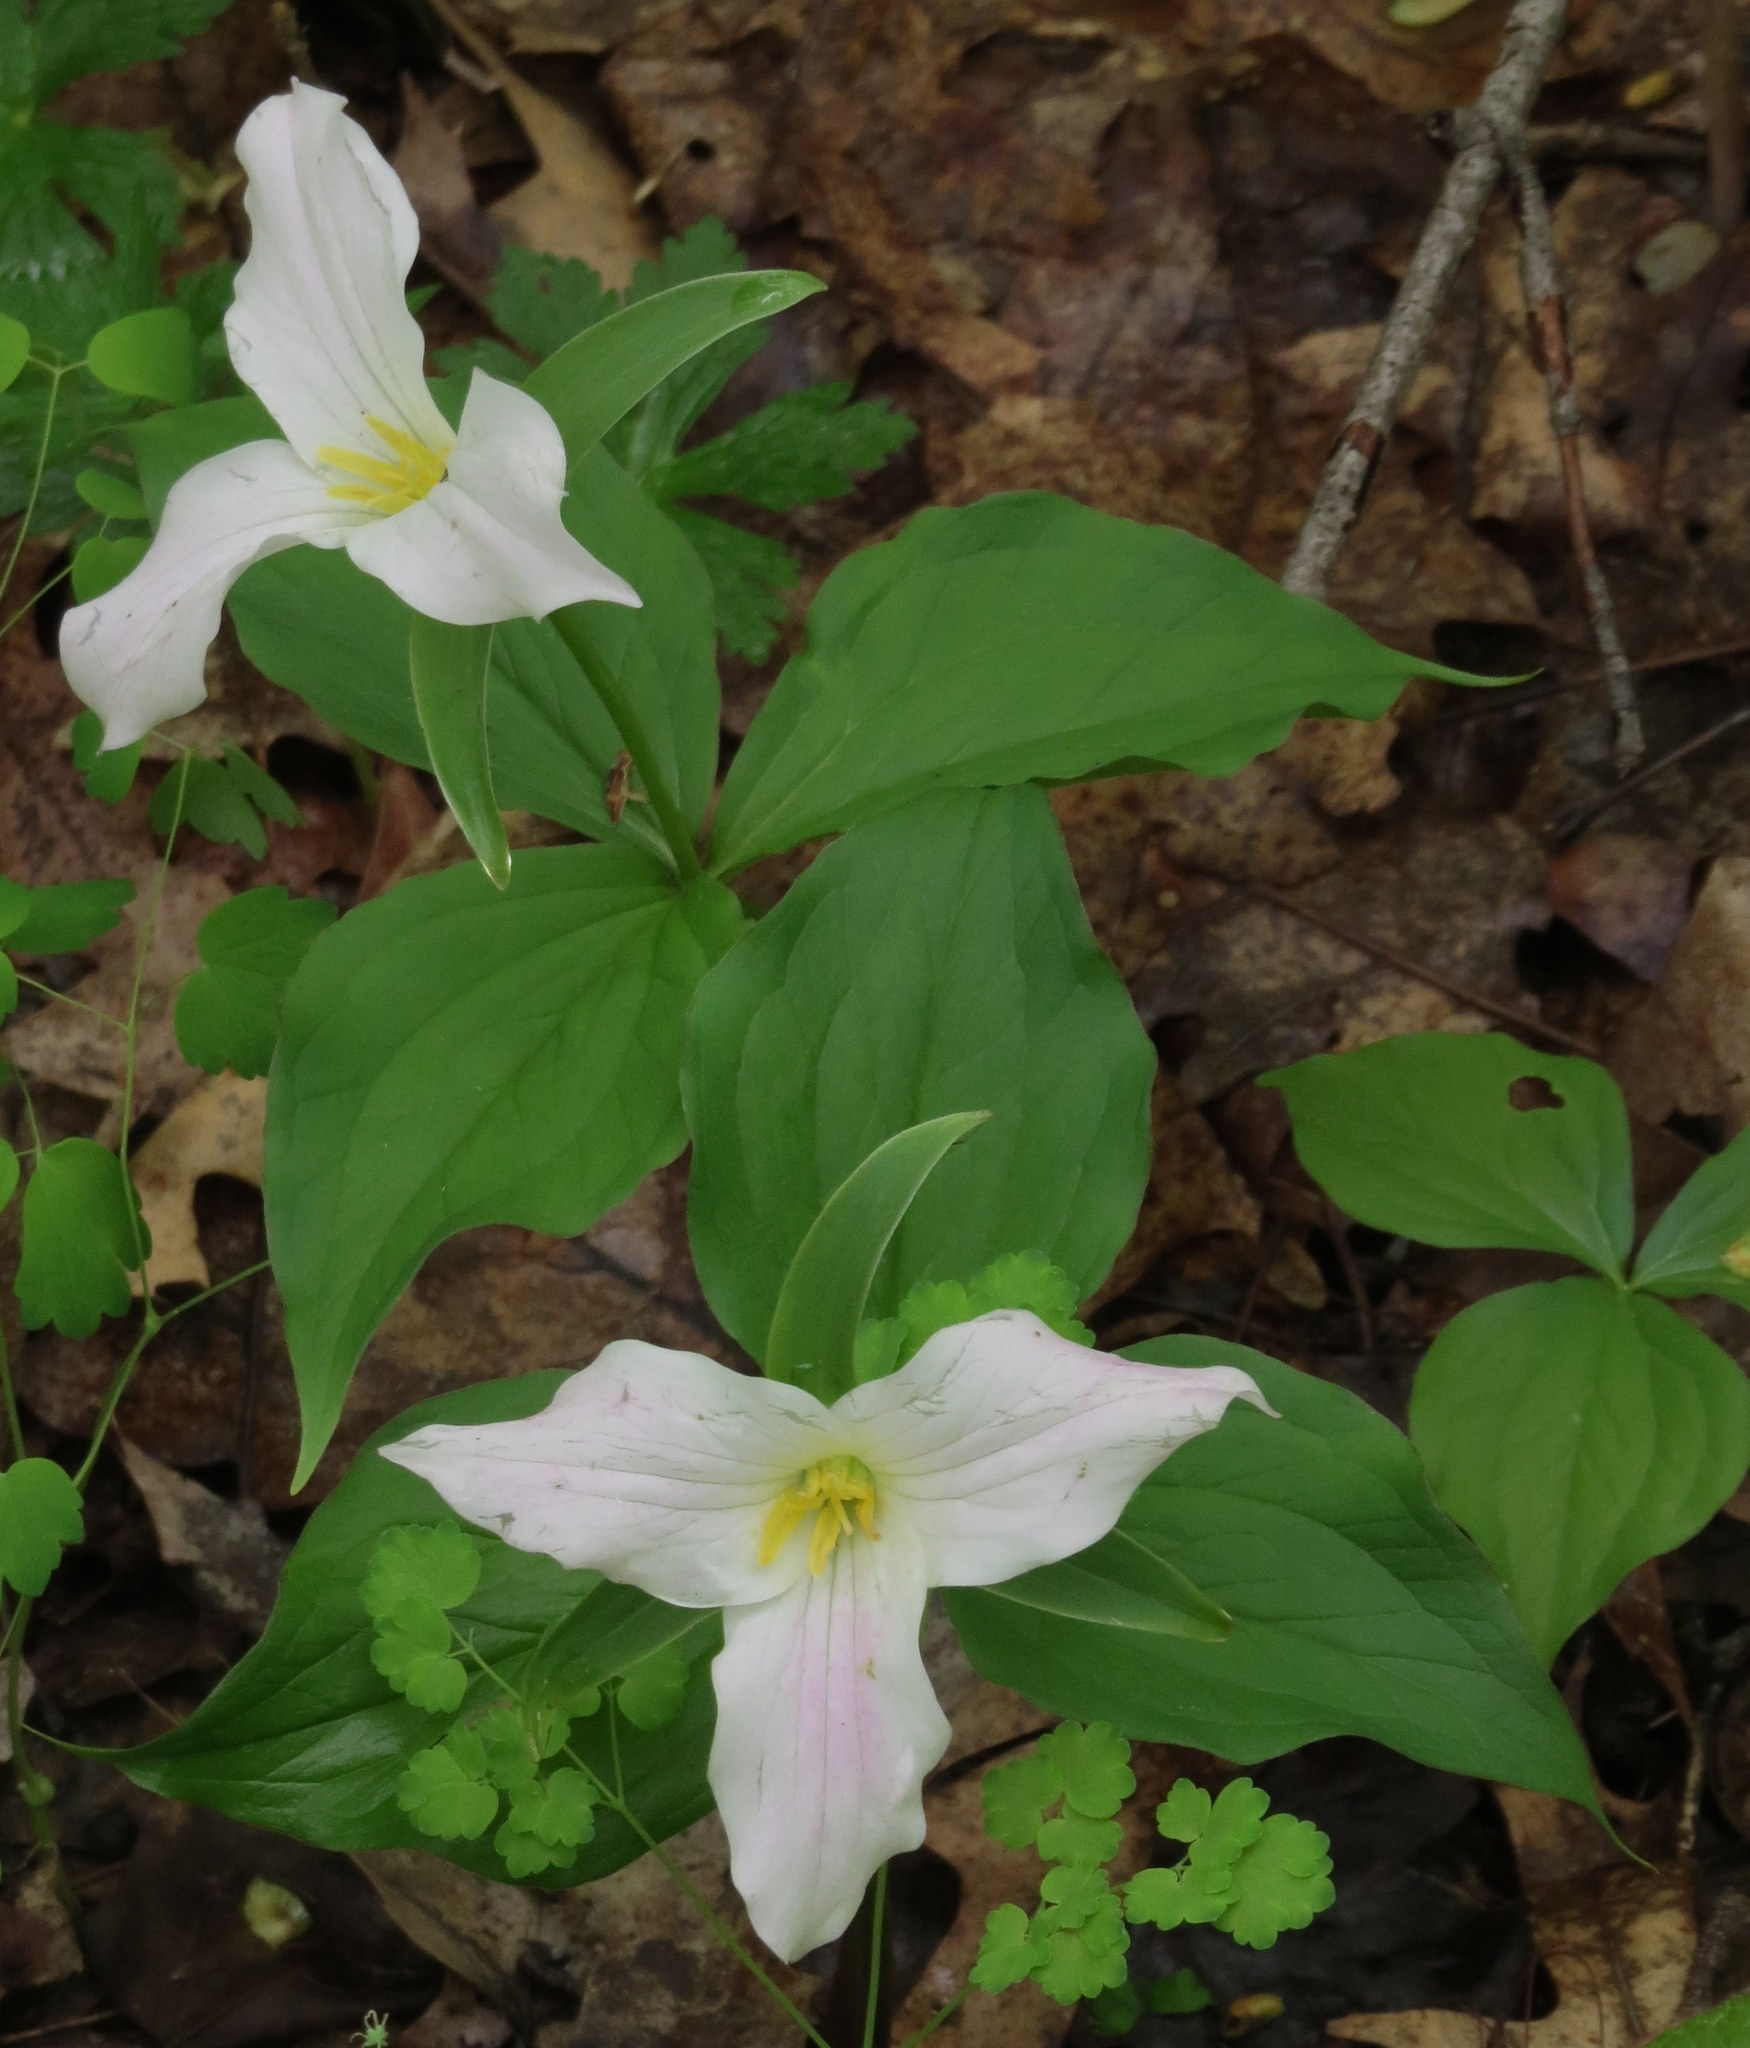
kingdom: Plantae
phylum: Tracheophyta
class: Liliopsida
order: Liliales
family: Melanthiaceae
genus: Trillium
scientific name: Trillium grandiflorum
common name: Great white trillium
